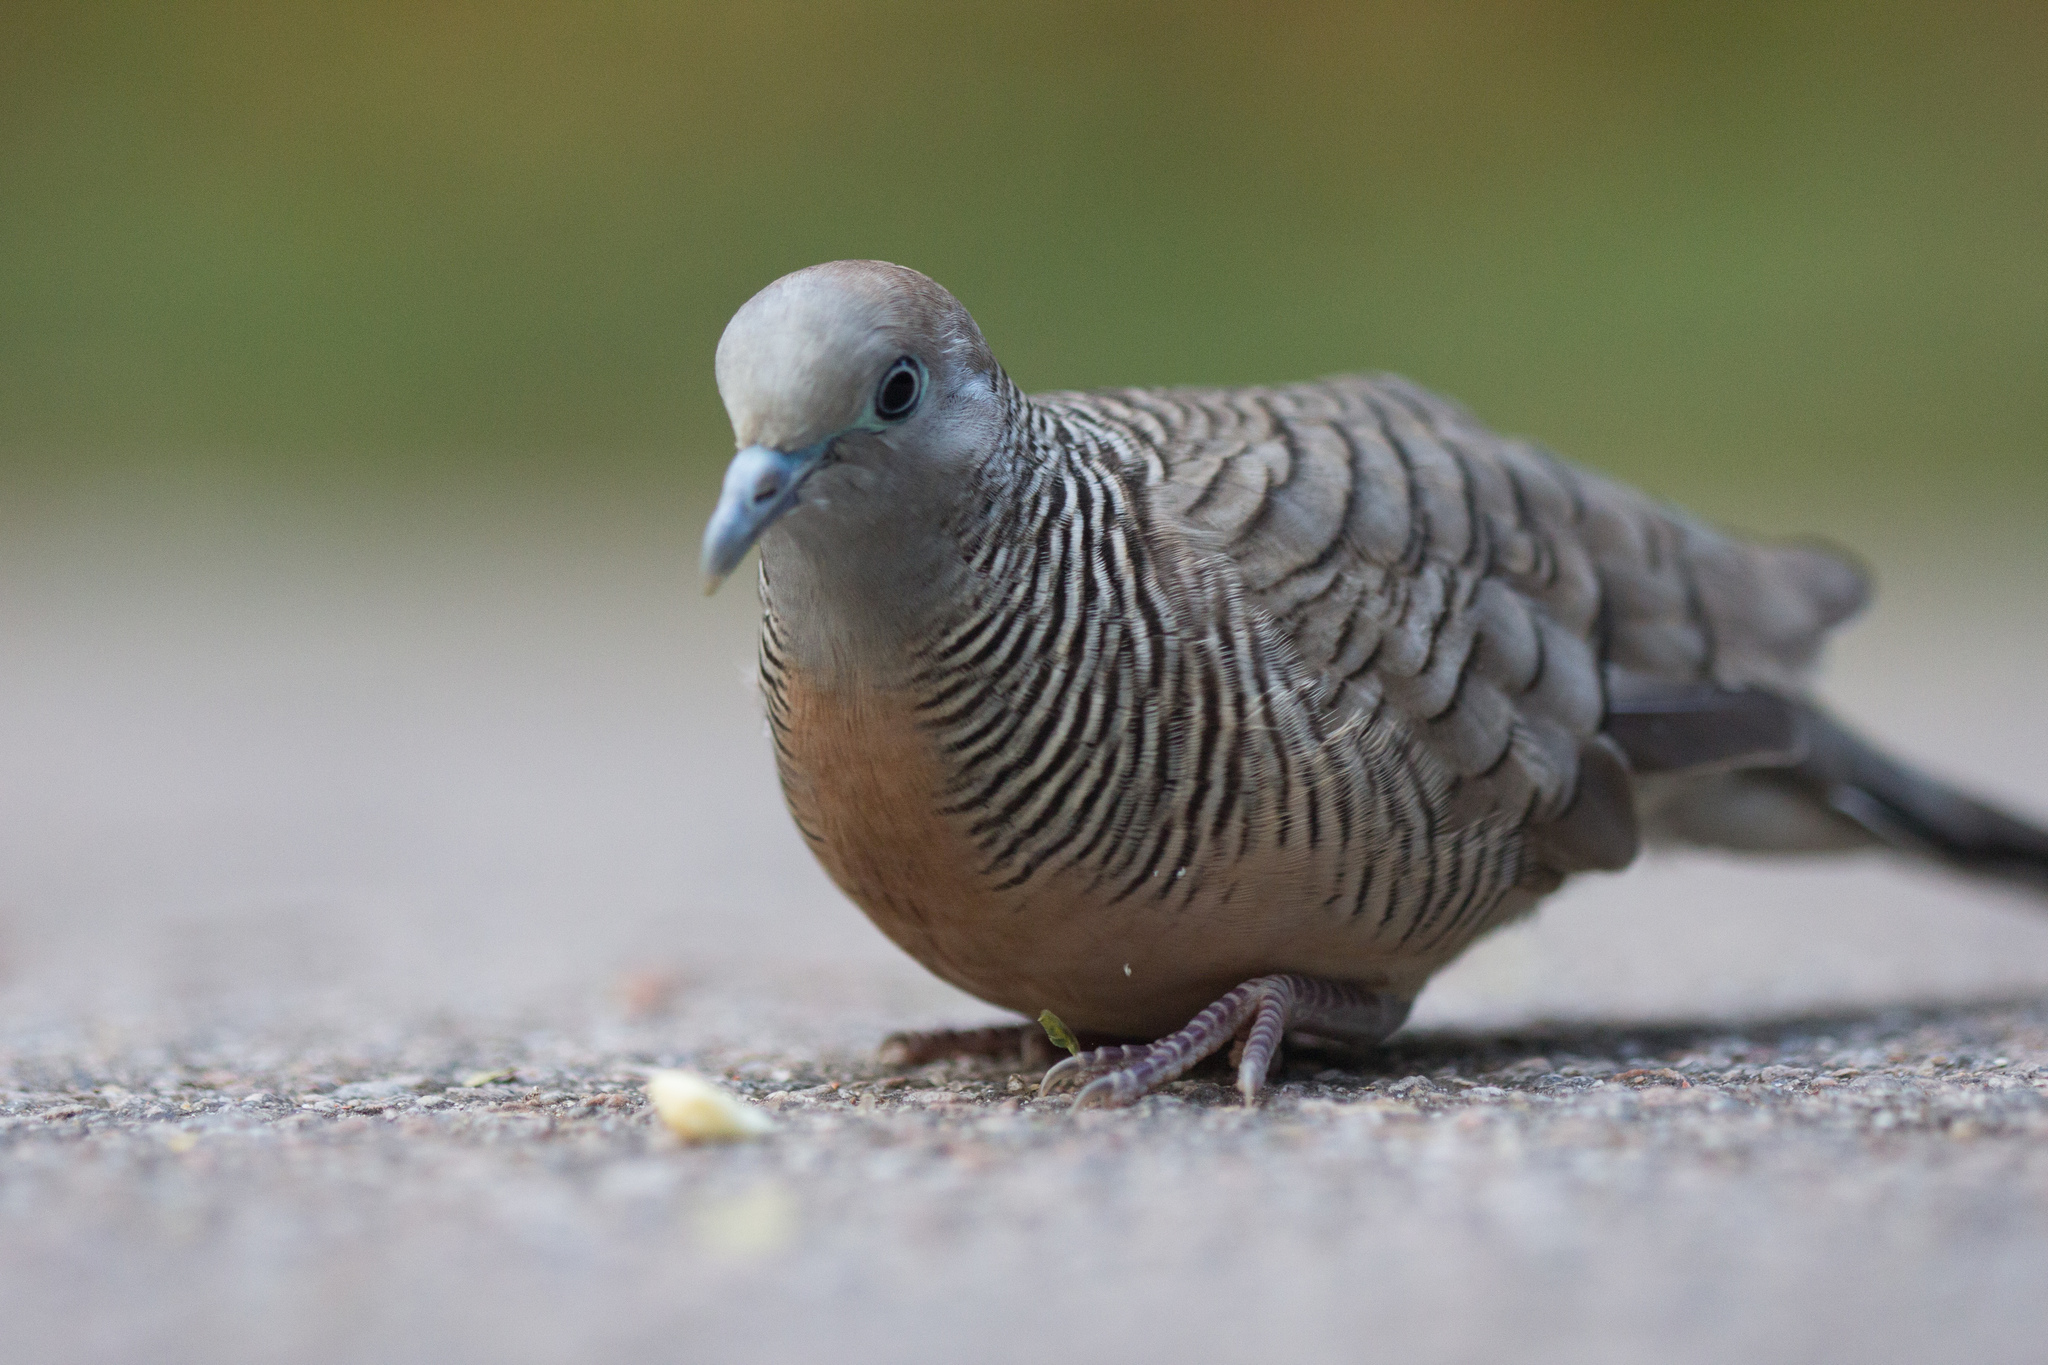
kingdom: Animalia
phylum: Chordata
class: Aves
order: Columbiformes
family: Columbidae
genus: Geopelia
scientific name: Geopelia striata
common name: Zebra dove
